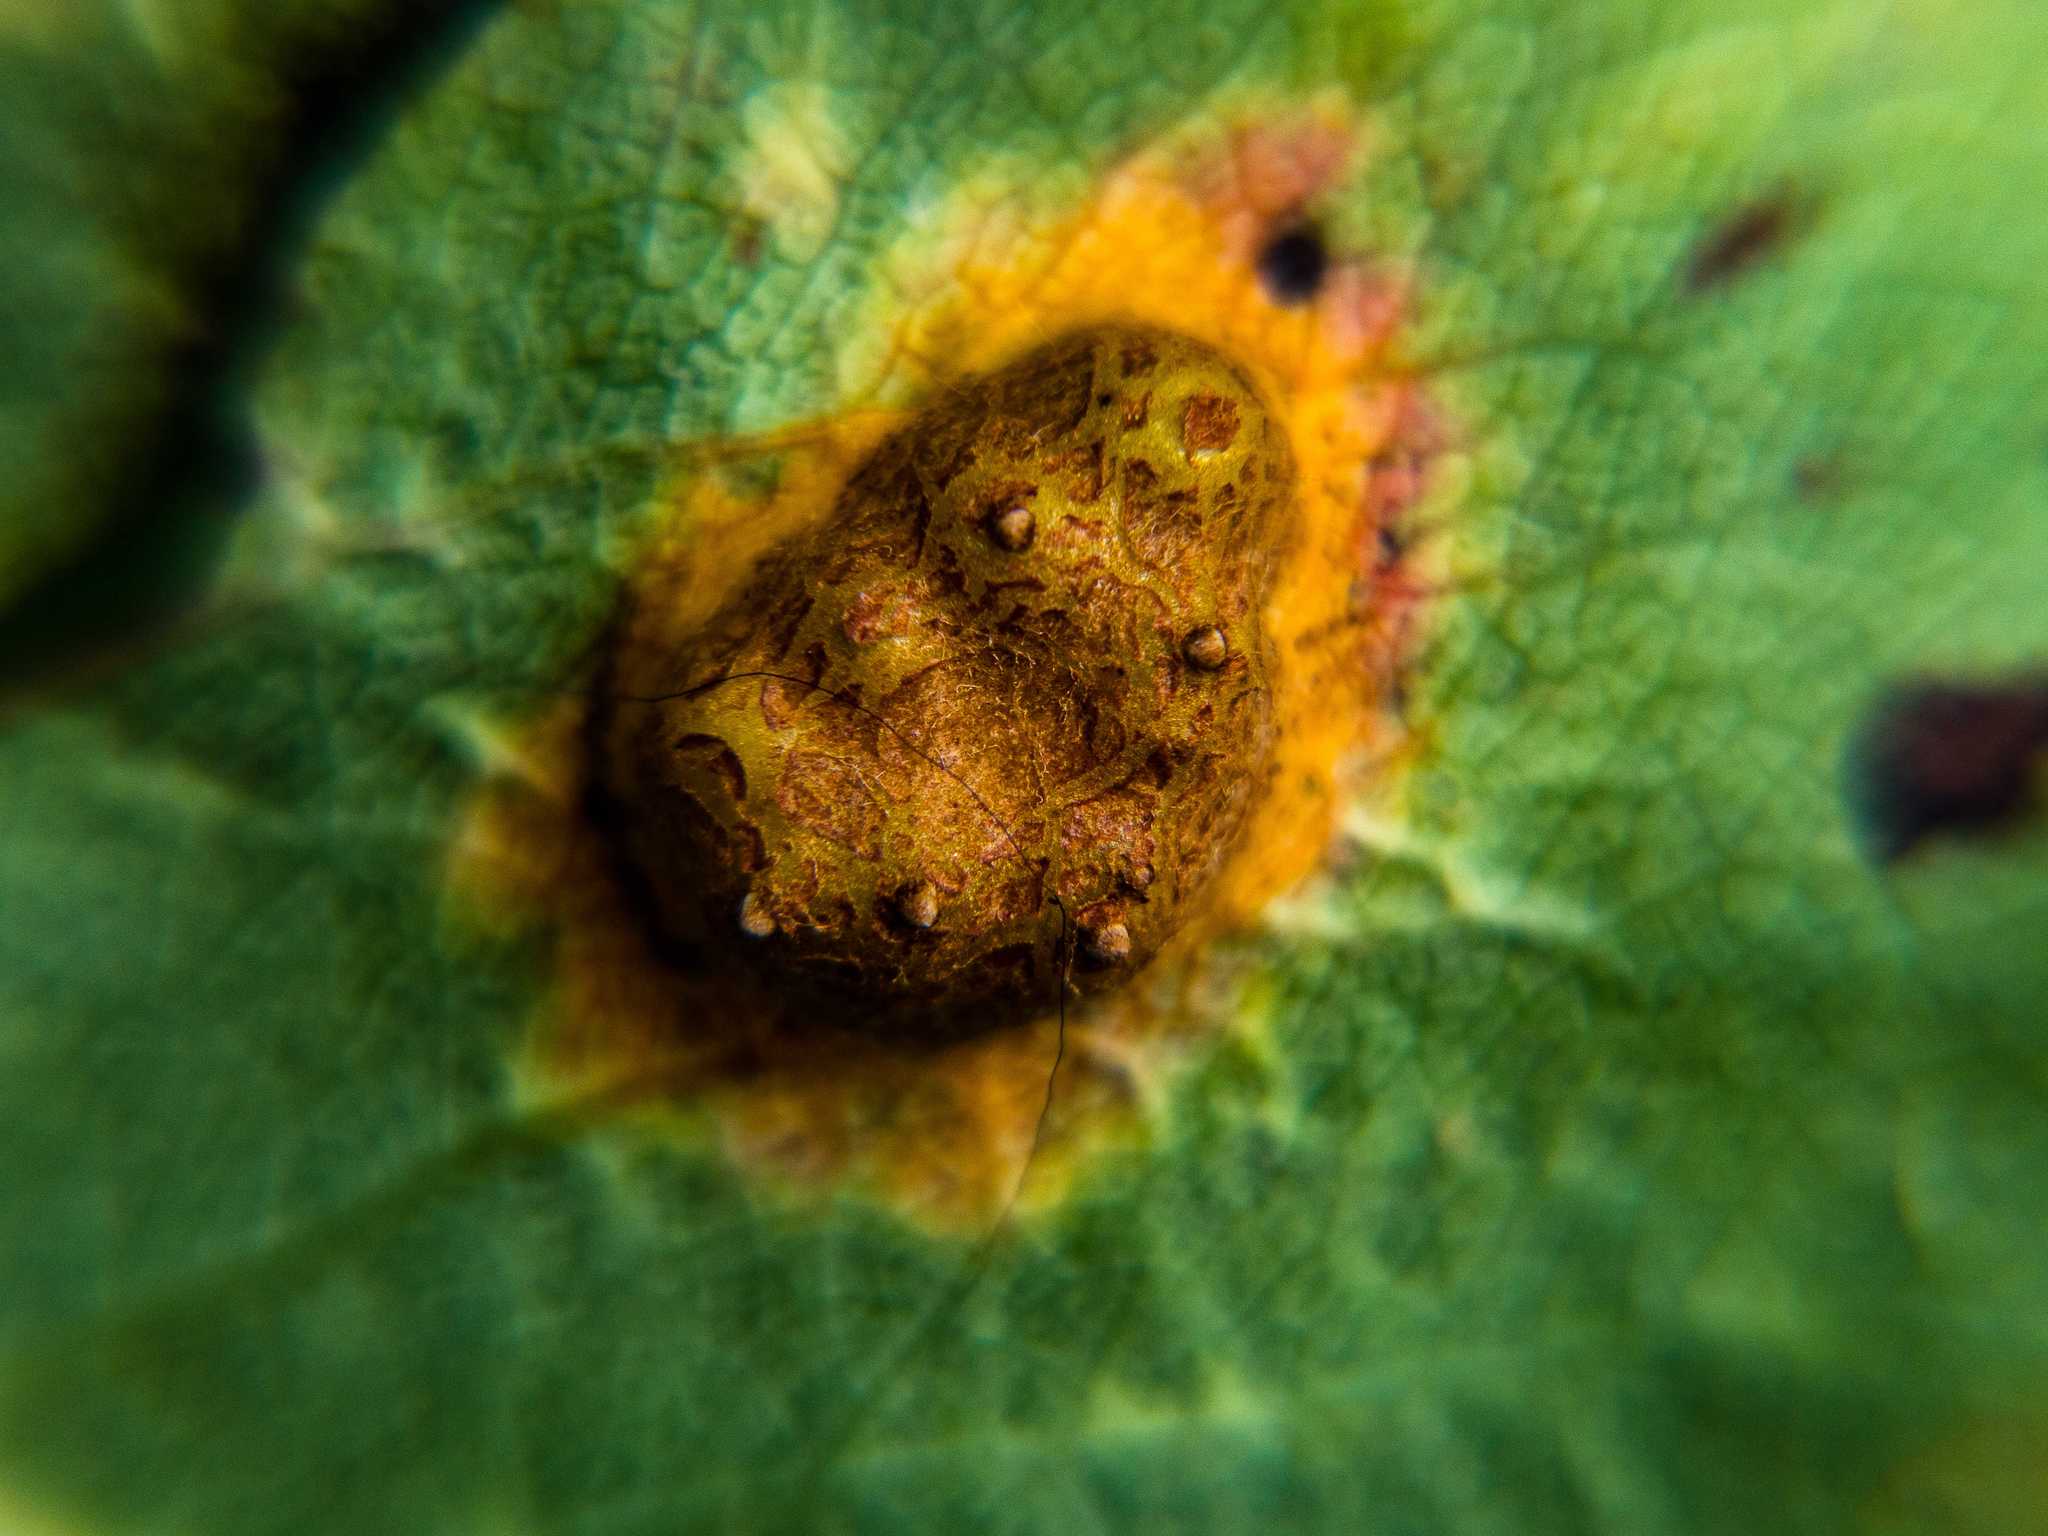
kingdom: Fungi
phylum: Basidiomycota
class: Pucciniomycetes
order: Pucciniales
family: Gymnosporangiaceae
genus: Gymnosporangium
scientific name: Gymnosporangium sabinae
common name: Pear trellis rust fungus
